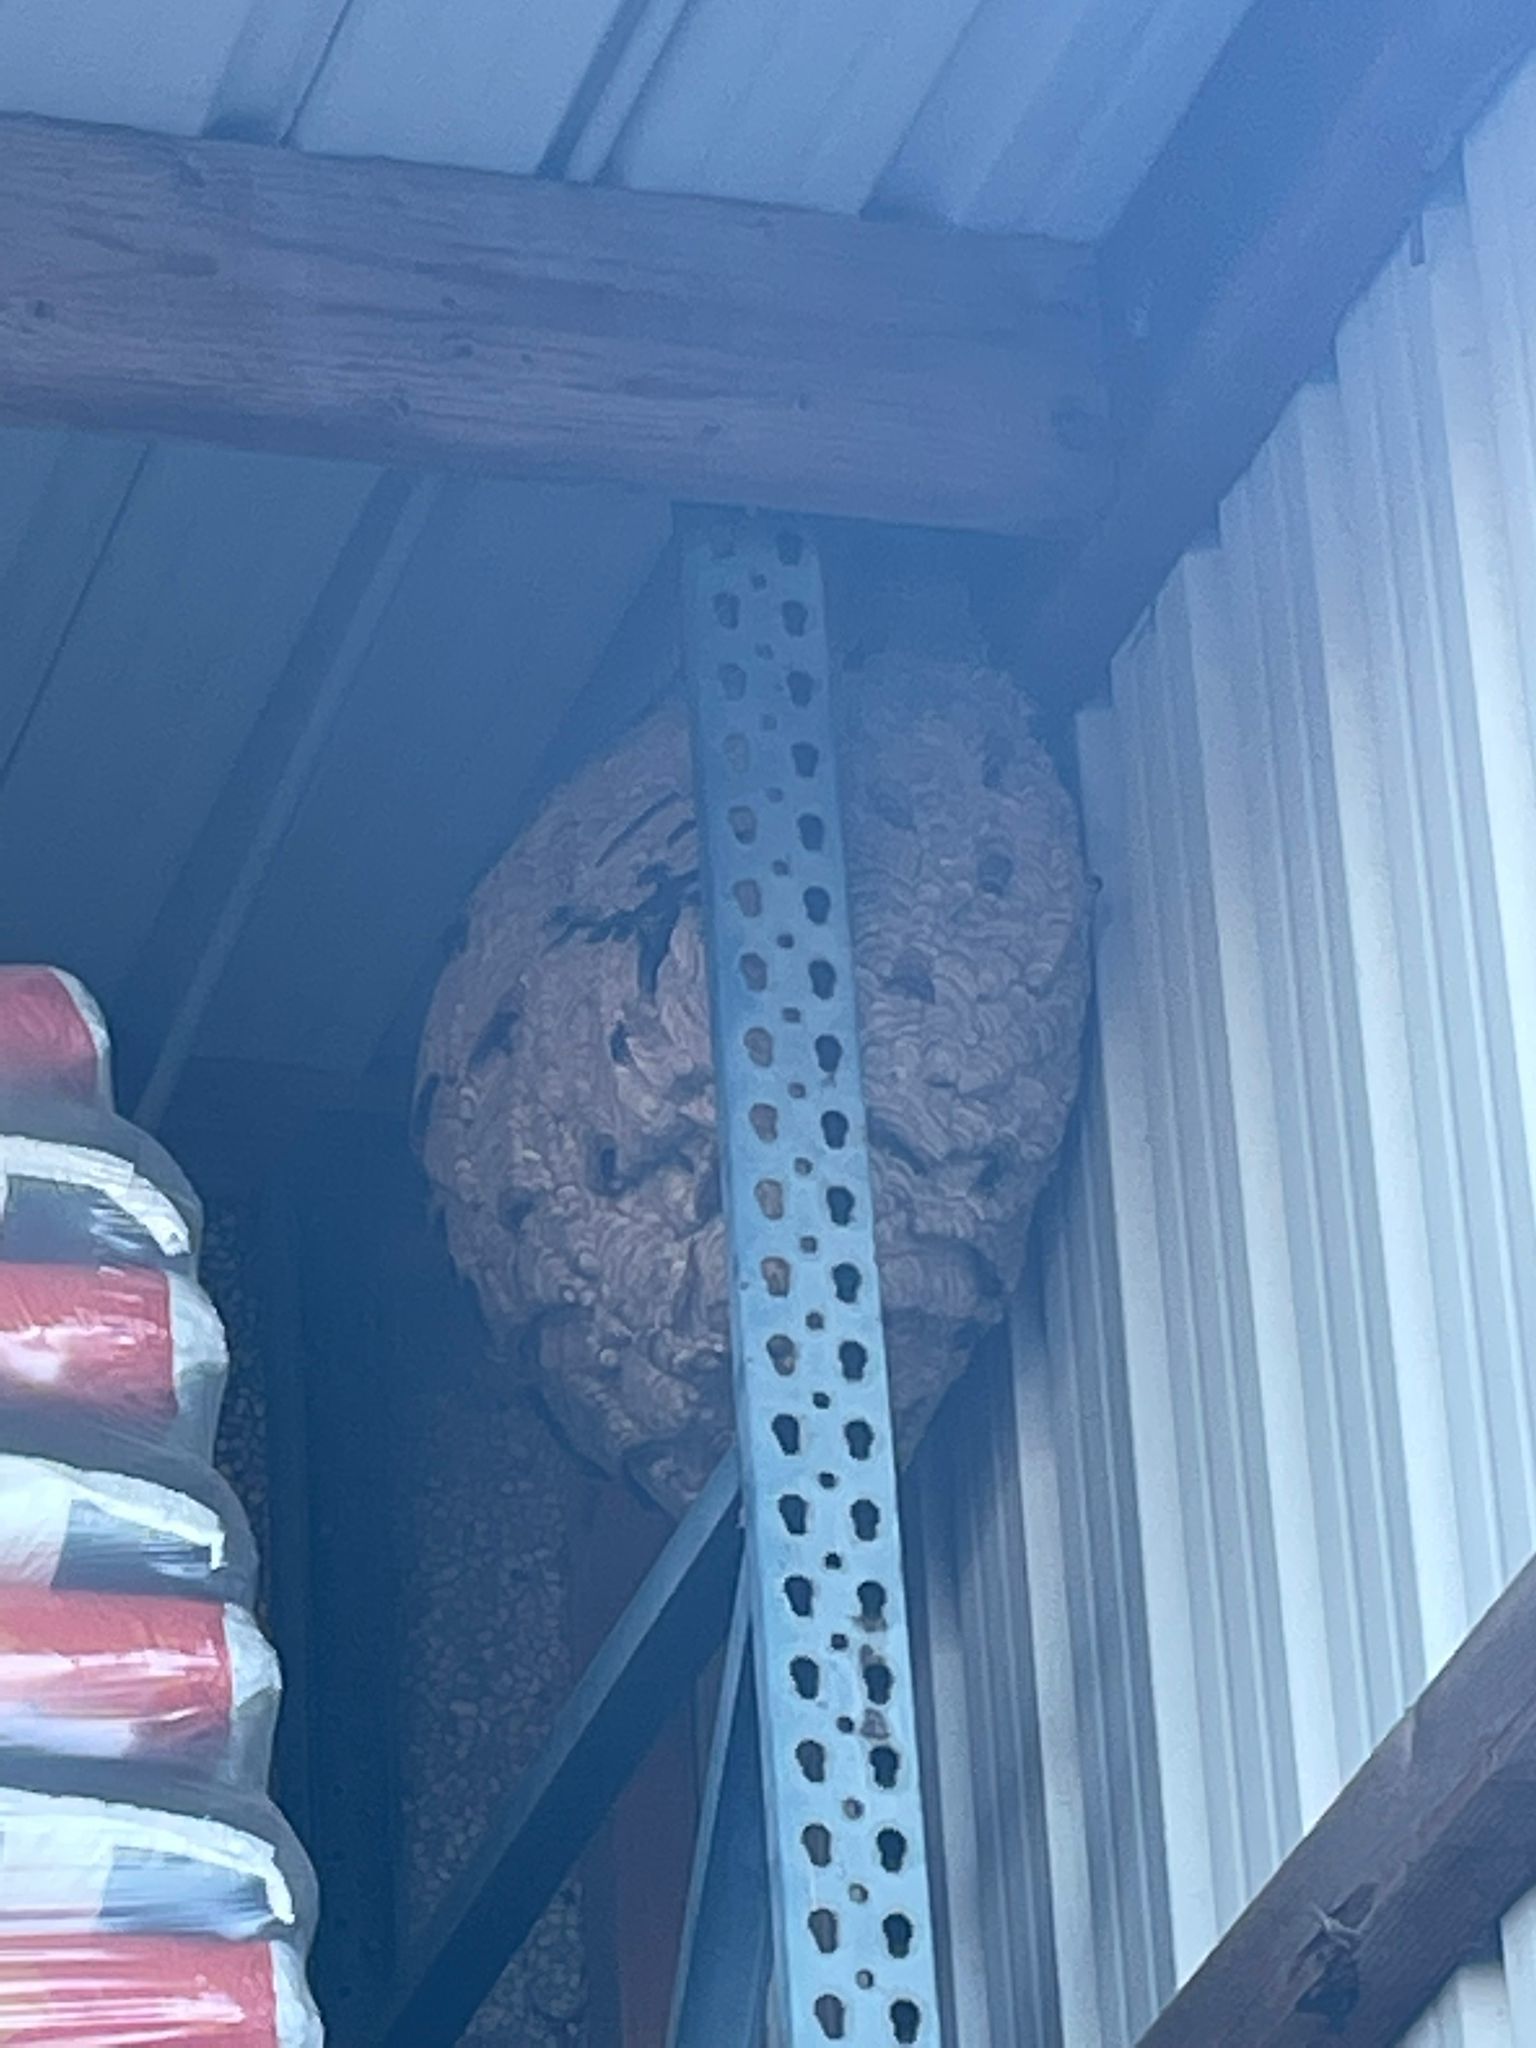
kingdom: Animalia
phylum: Arthropoda
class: Insecta
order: Hymenoptera
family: Vespidae
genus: Vespa
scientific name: Vespa velutina
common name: Asian hornet
